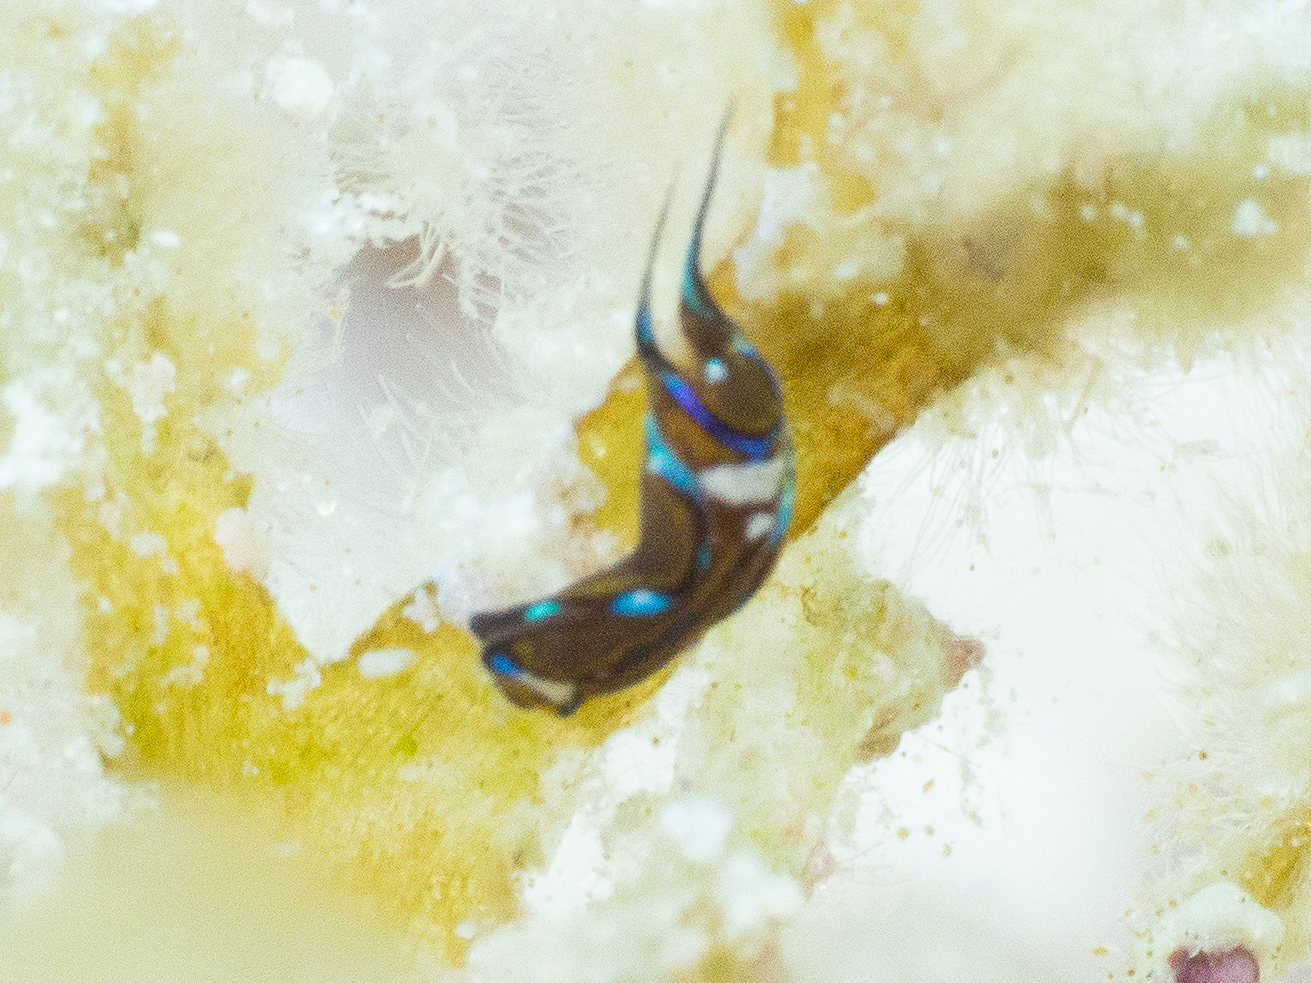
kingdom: Animalia
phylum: Mollusca
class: Gastropoda
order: Cephalaspidea
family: Aglajidae
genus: Chelidonura
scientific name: Chelidonura hirundinina
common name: Leech headshield slug
